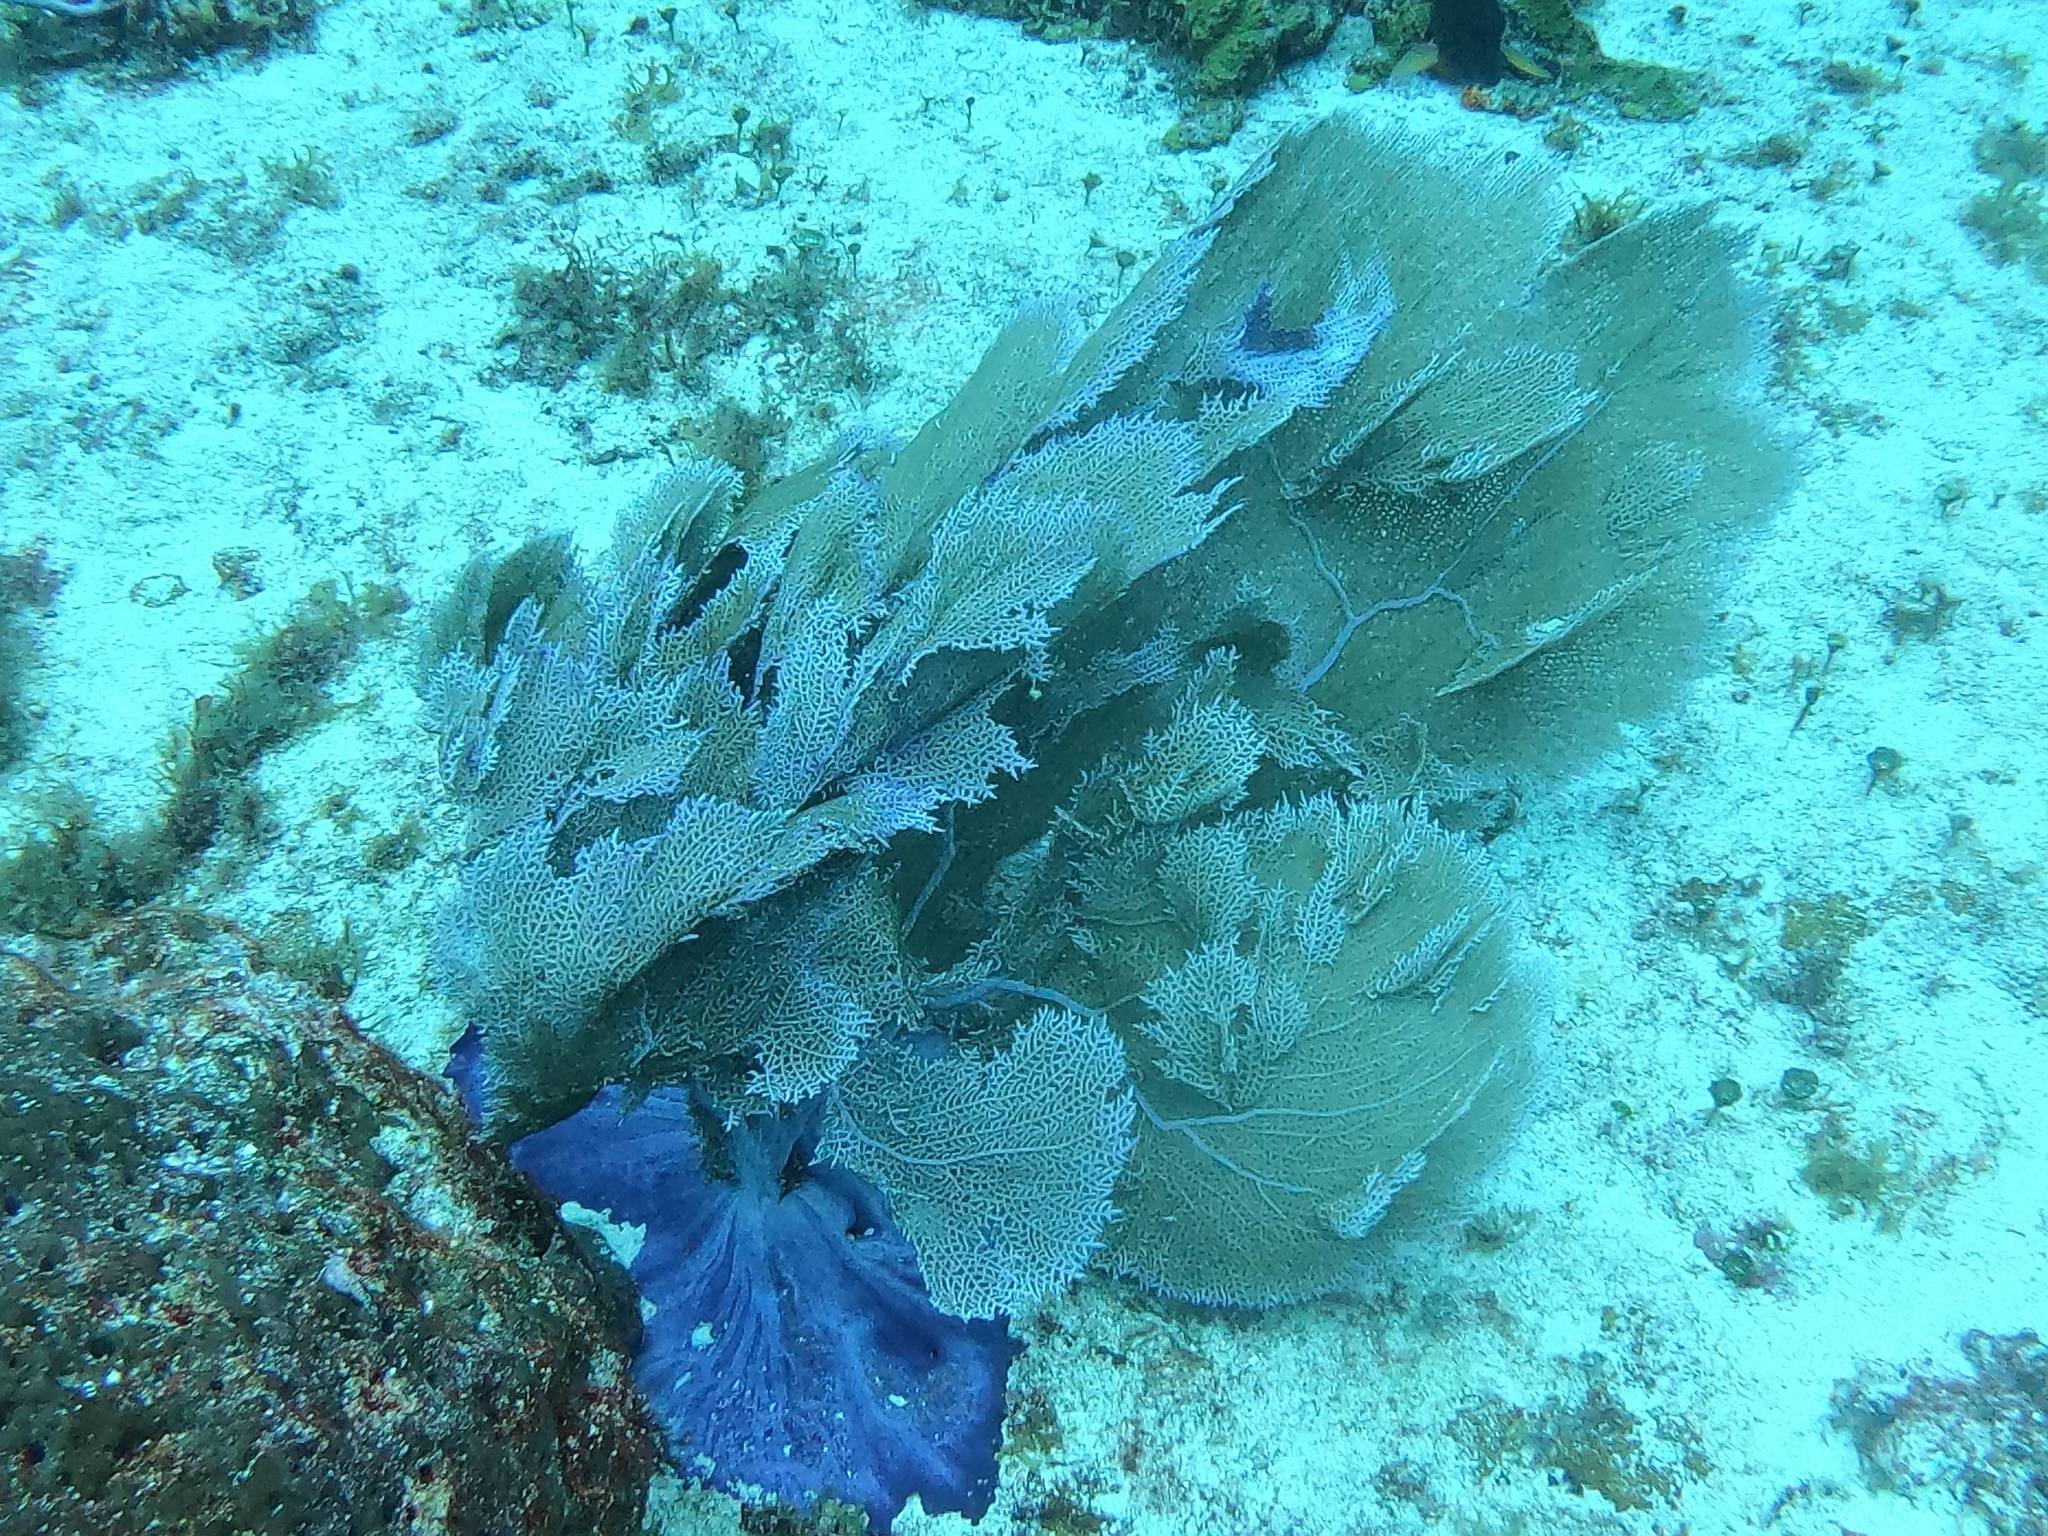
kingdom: Animalia
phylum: Cnidaria
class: Anthozoa
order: Malacalcyonacea
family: Gorgoniidae
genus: Gorgonia
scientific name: Gorgonia ventalina
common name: Common sea fan
